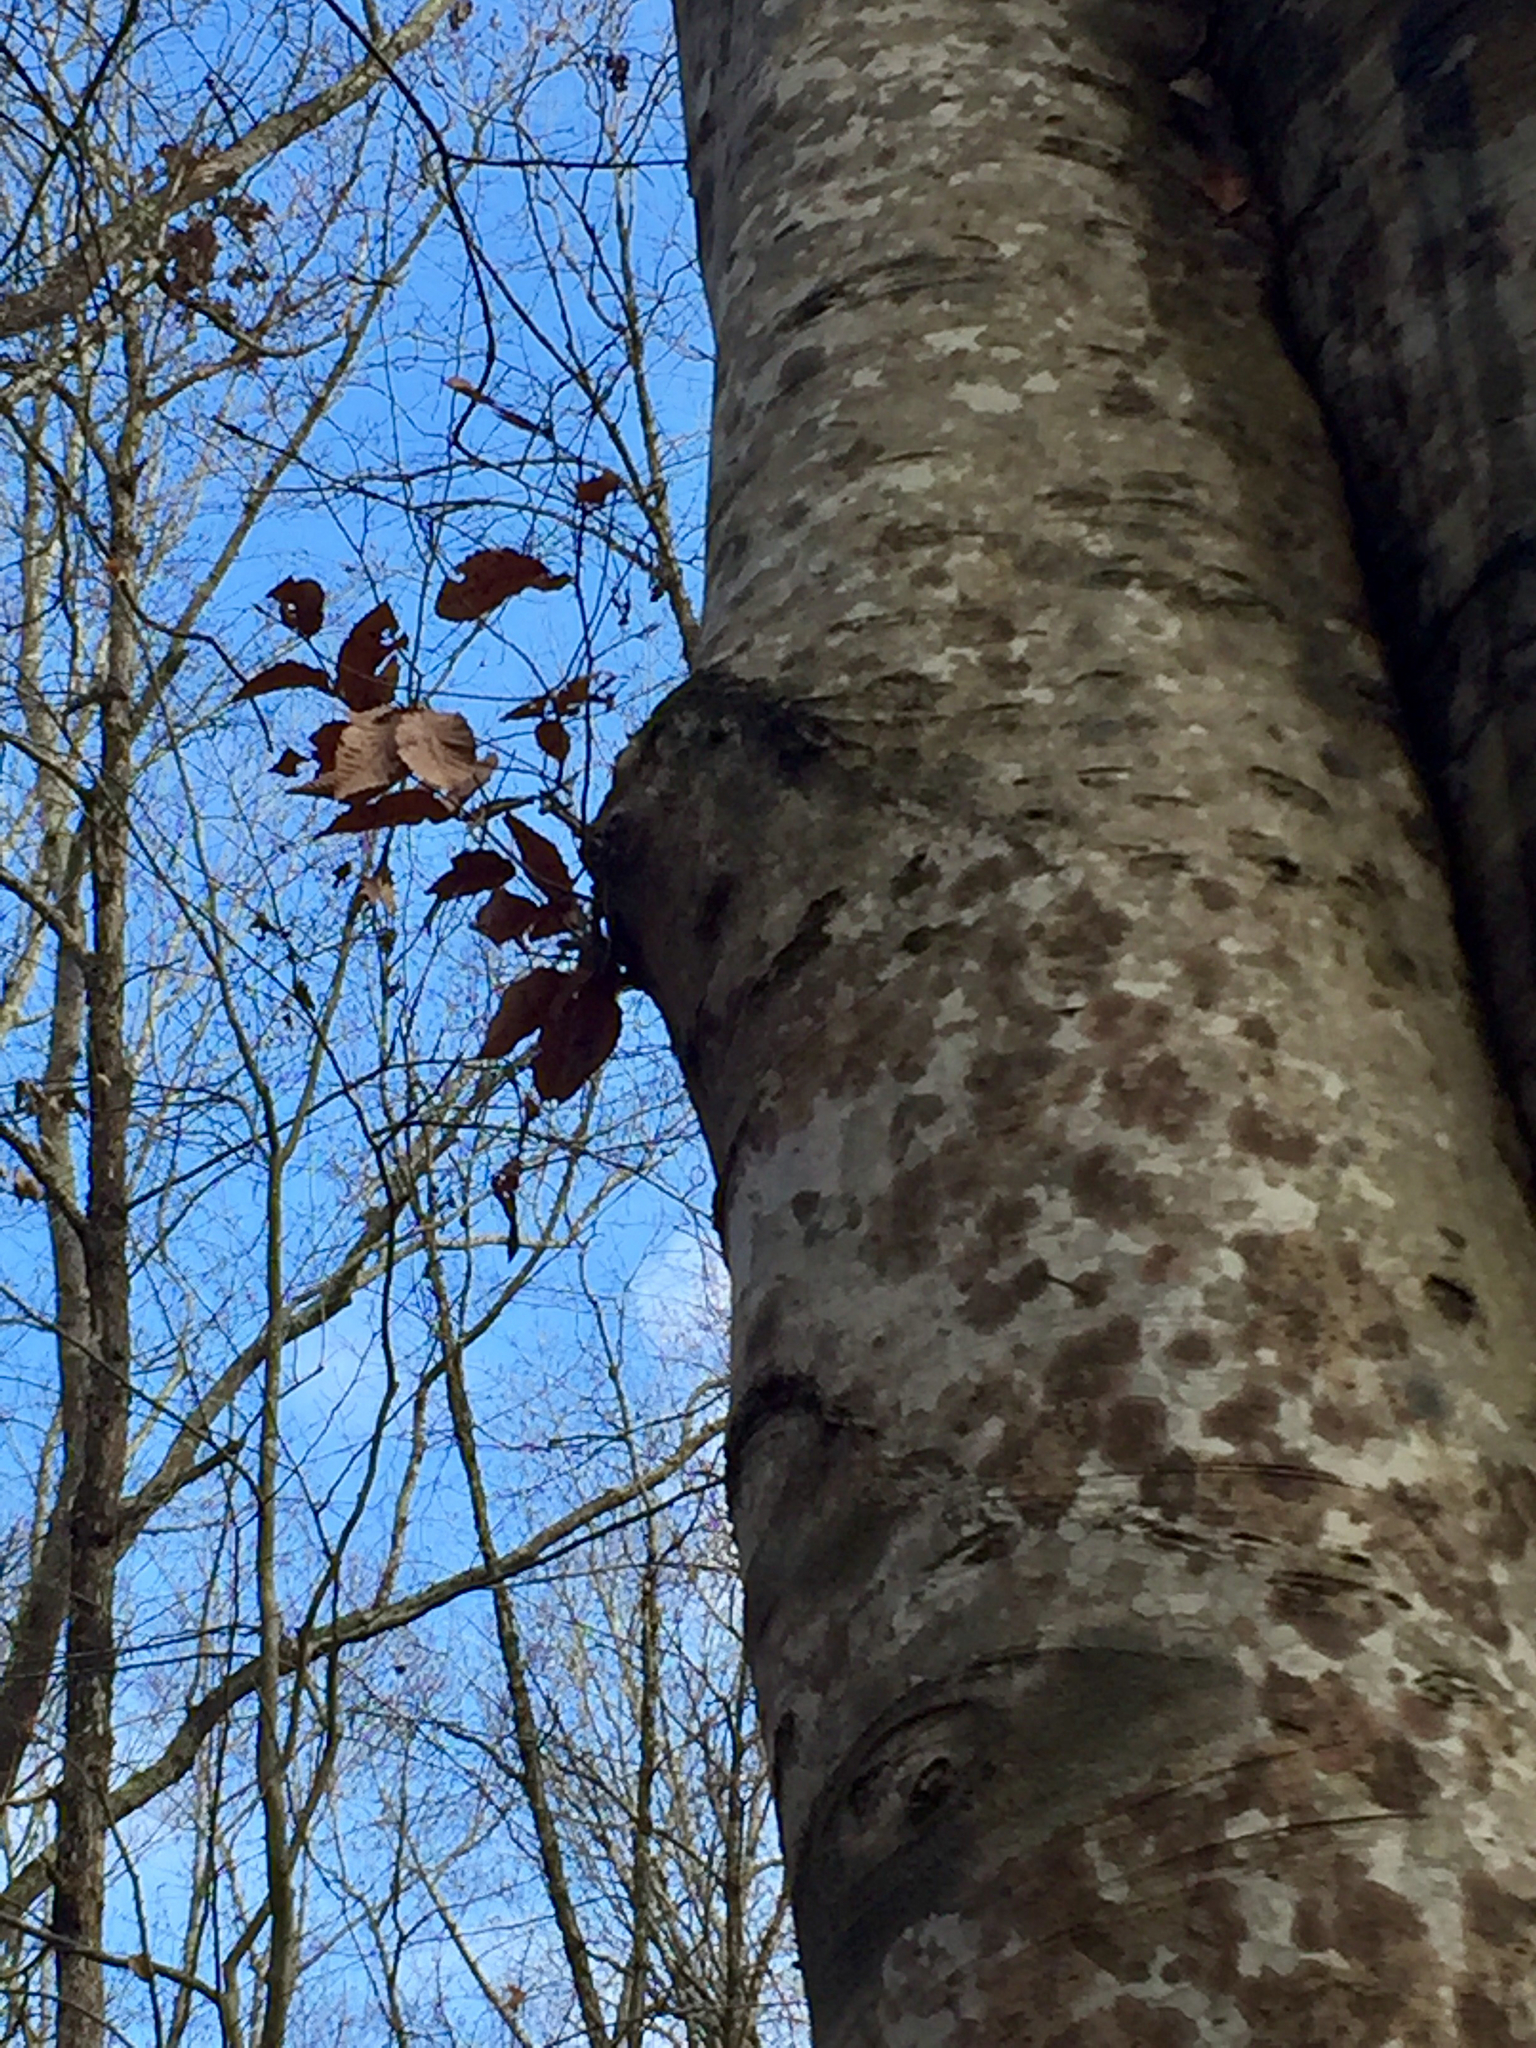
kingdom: Plantae
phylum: Tracheophyta
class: Magnoliopsida
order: Fagales
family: Fagaceae
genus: Fagus
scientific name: Fagus grandifolia
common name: American beech
